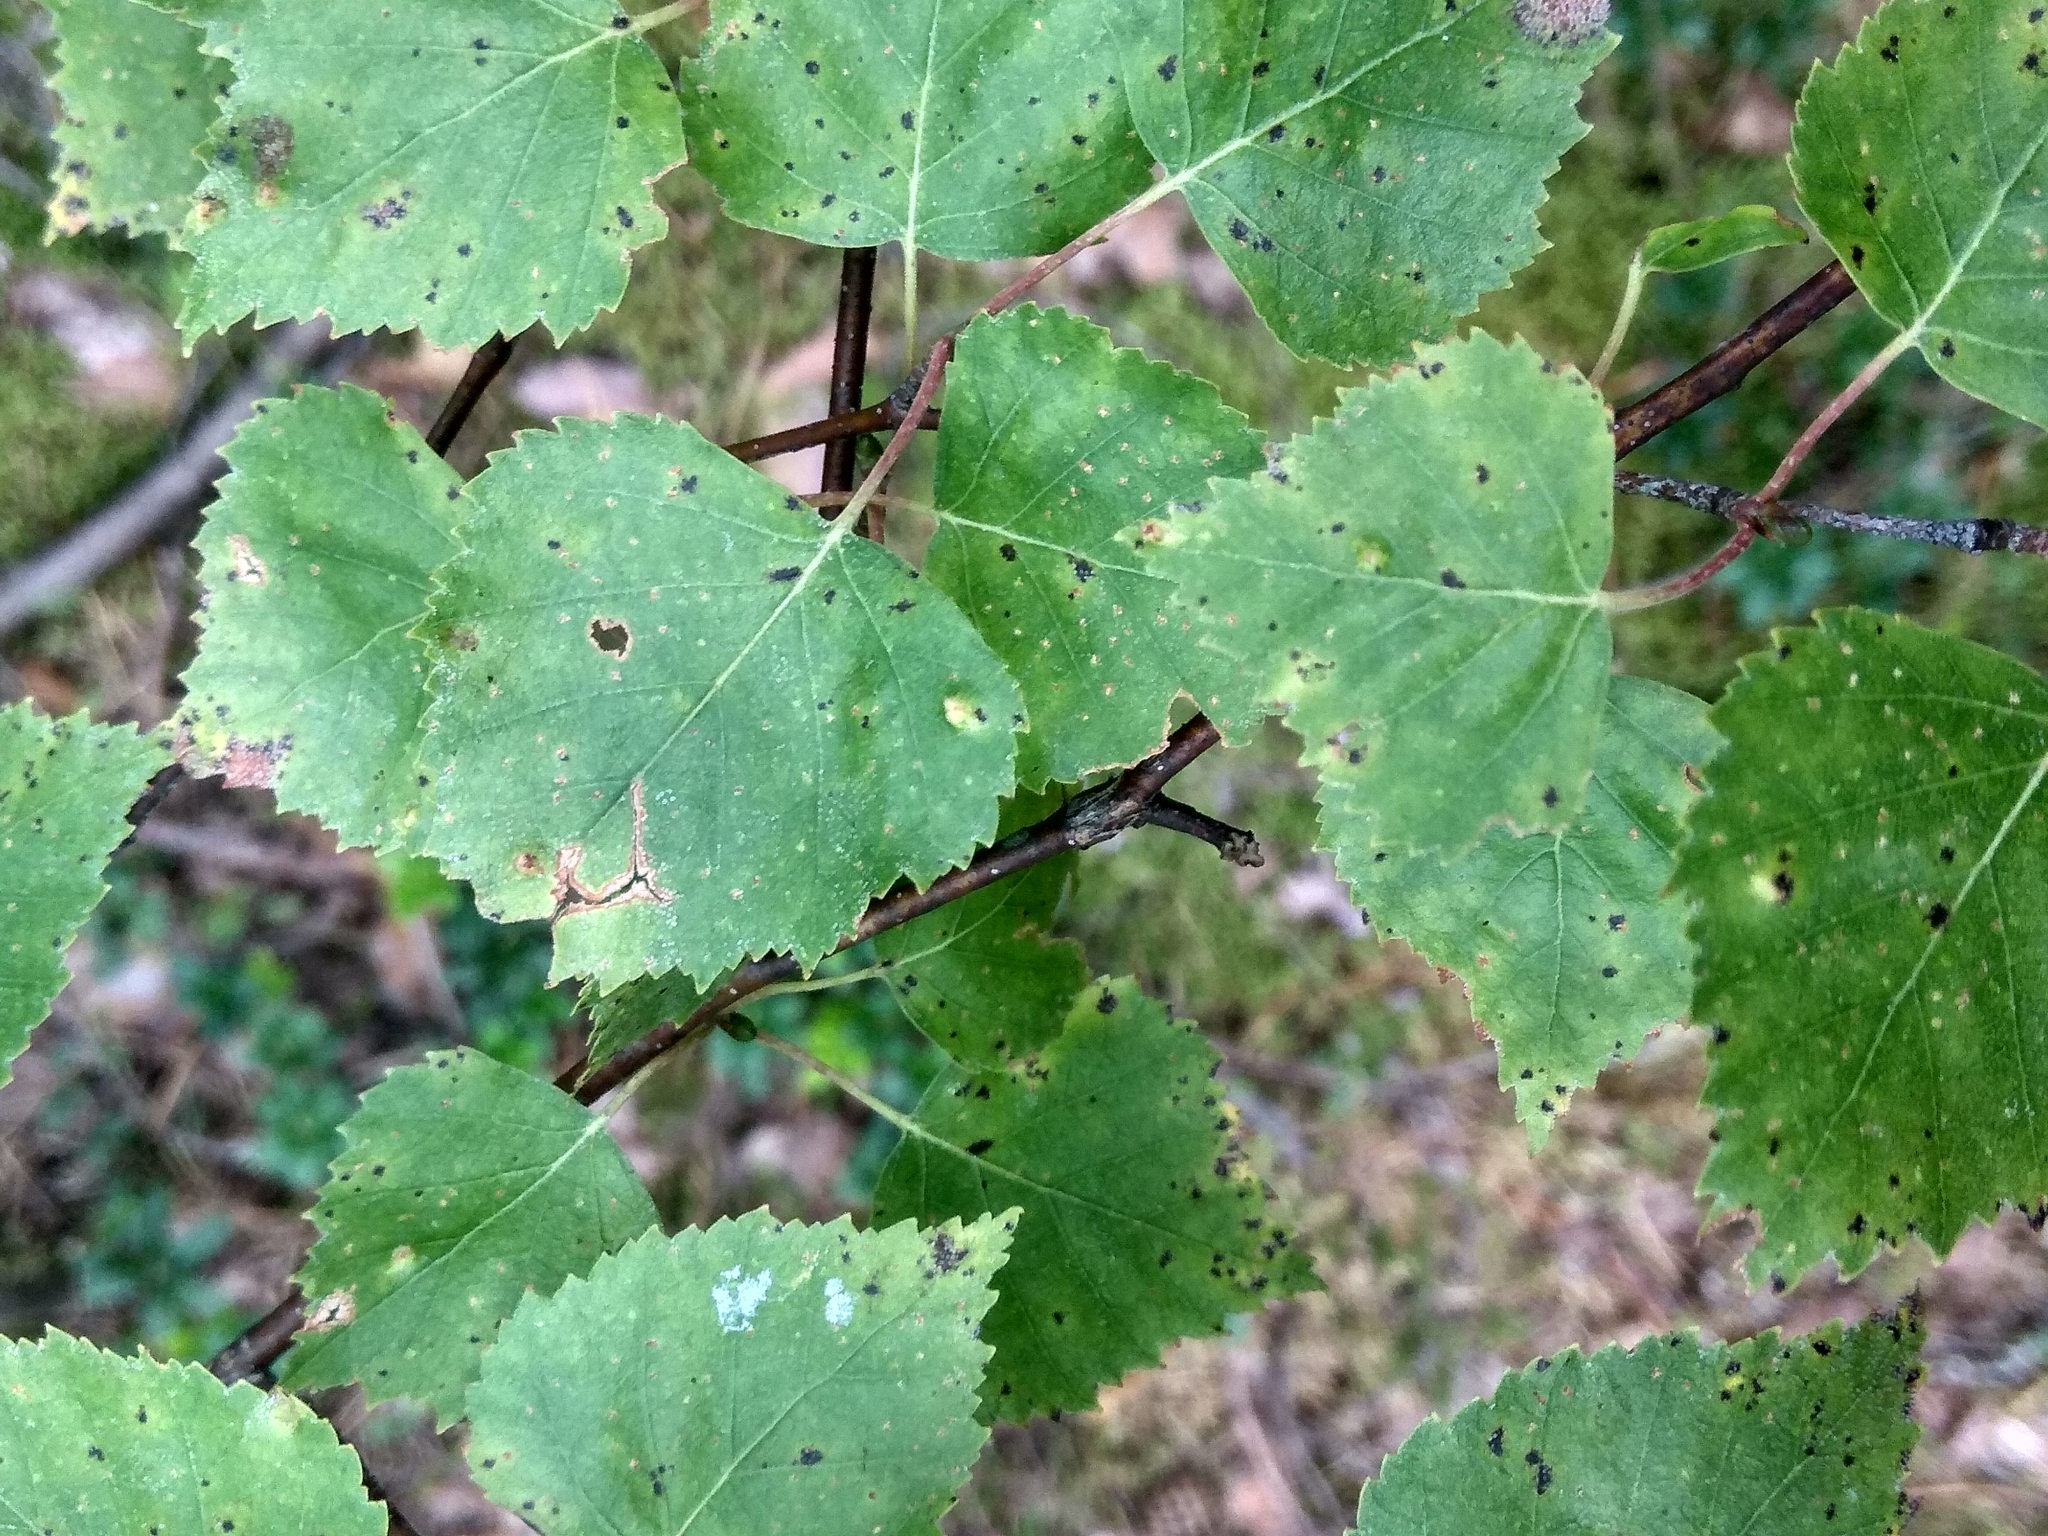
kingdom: Plantae
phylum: Tracheophyta
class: Magnoliopsida
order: Fagales
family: Betulaceae
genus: Betula
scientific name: Betula pendula
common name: Silver birch
